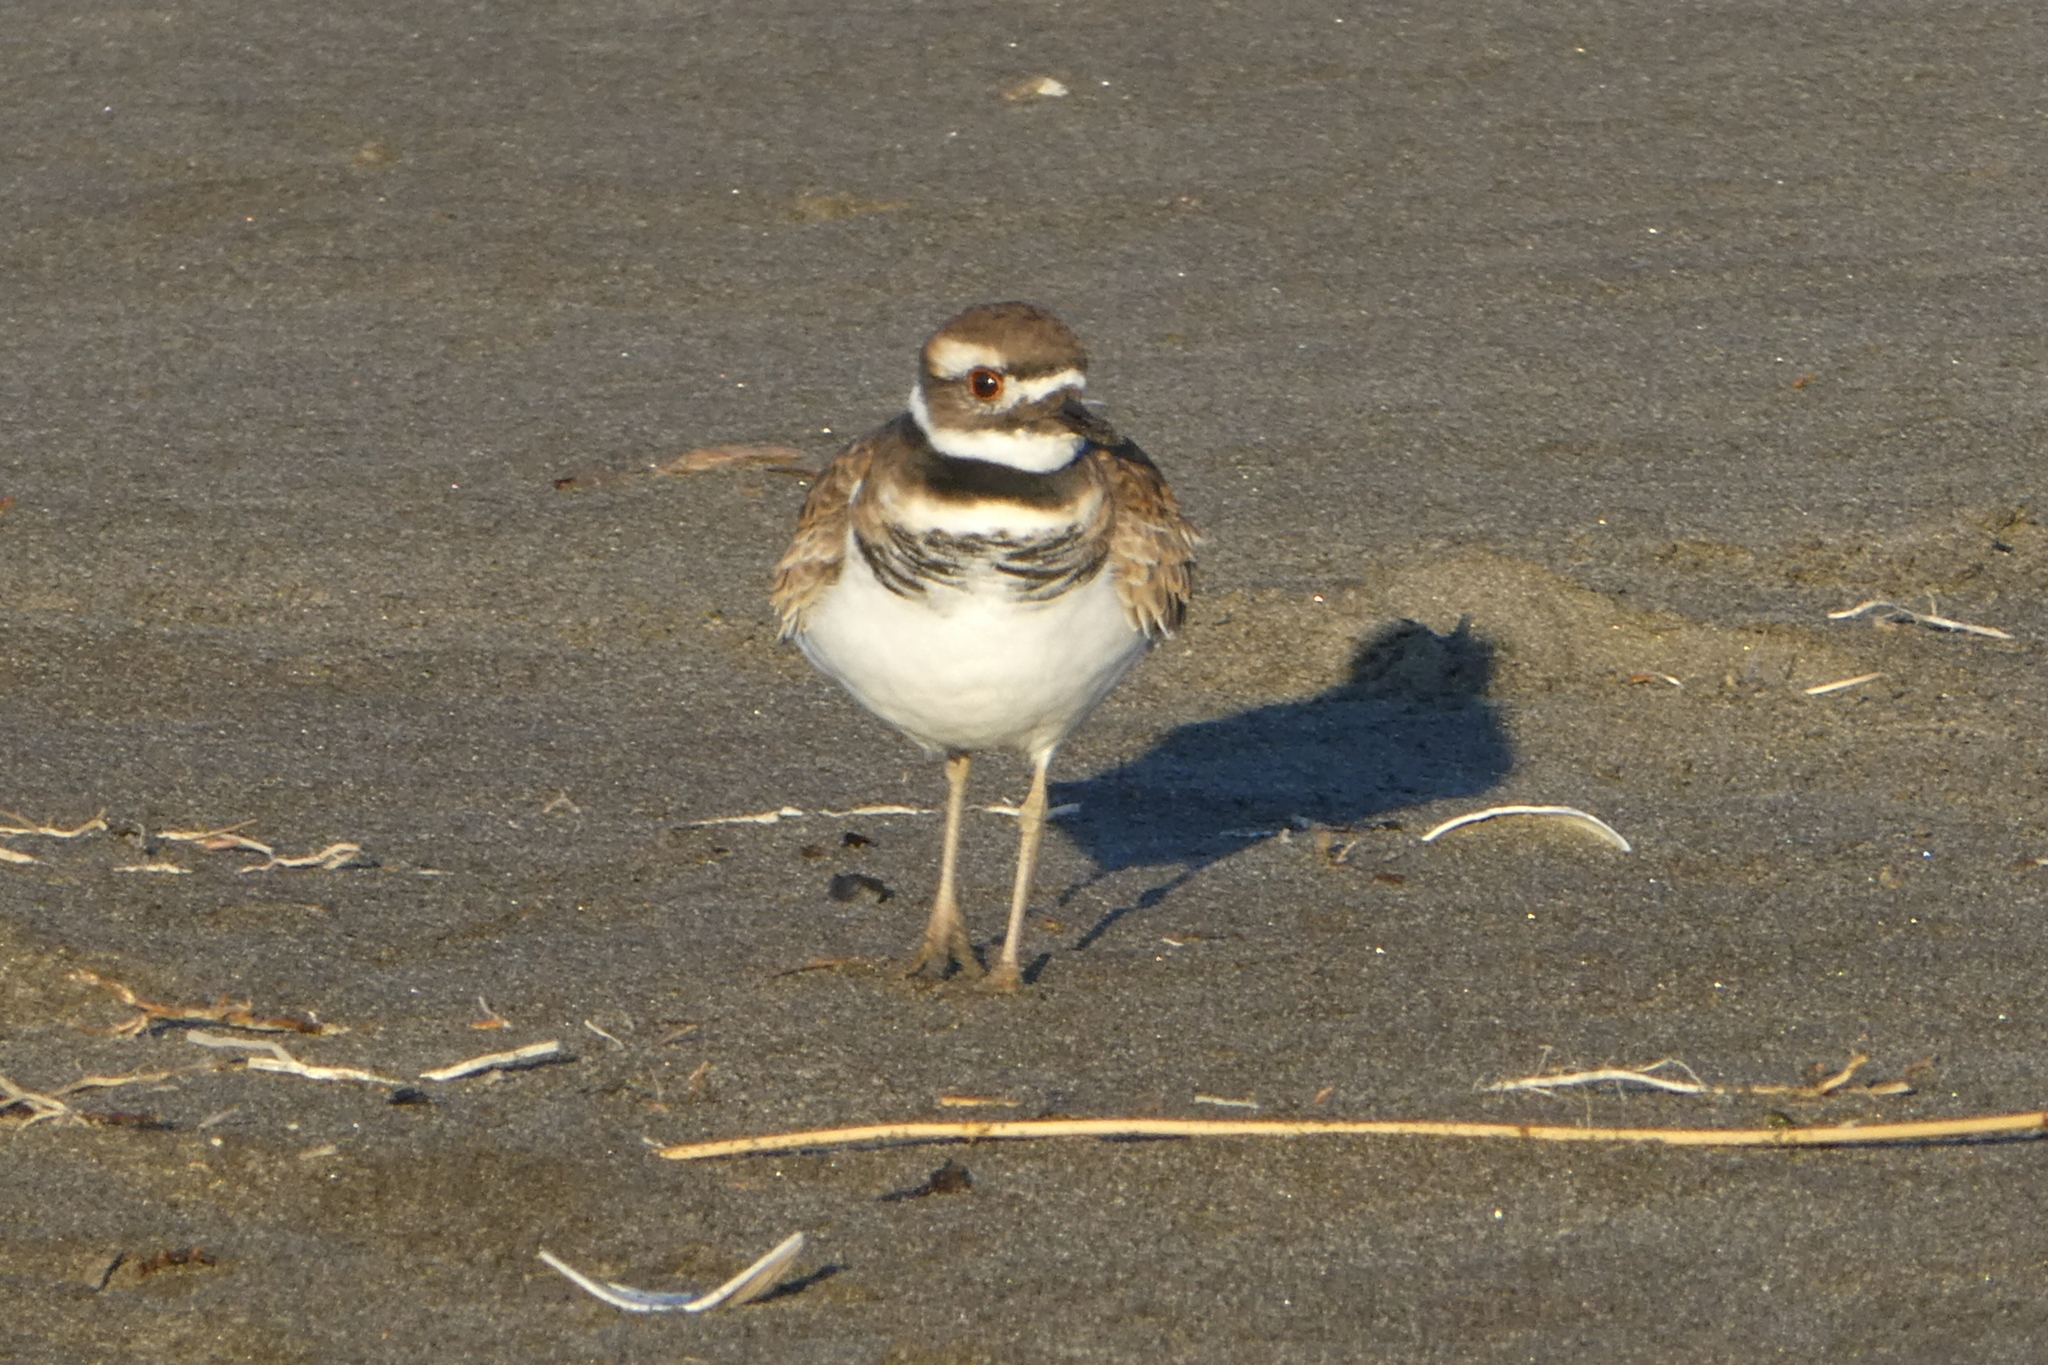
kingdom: Animalia
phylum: Chordata
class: Aves
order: Charadriiformes
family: Charadriidae
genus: Charadrius
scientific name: Charadrius vociferus
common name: Killdeer
